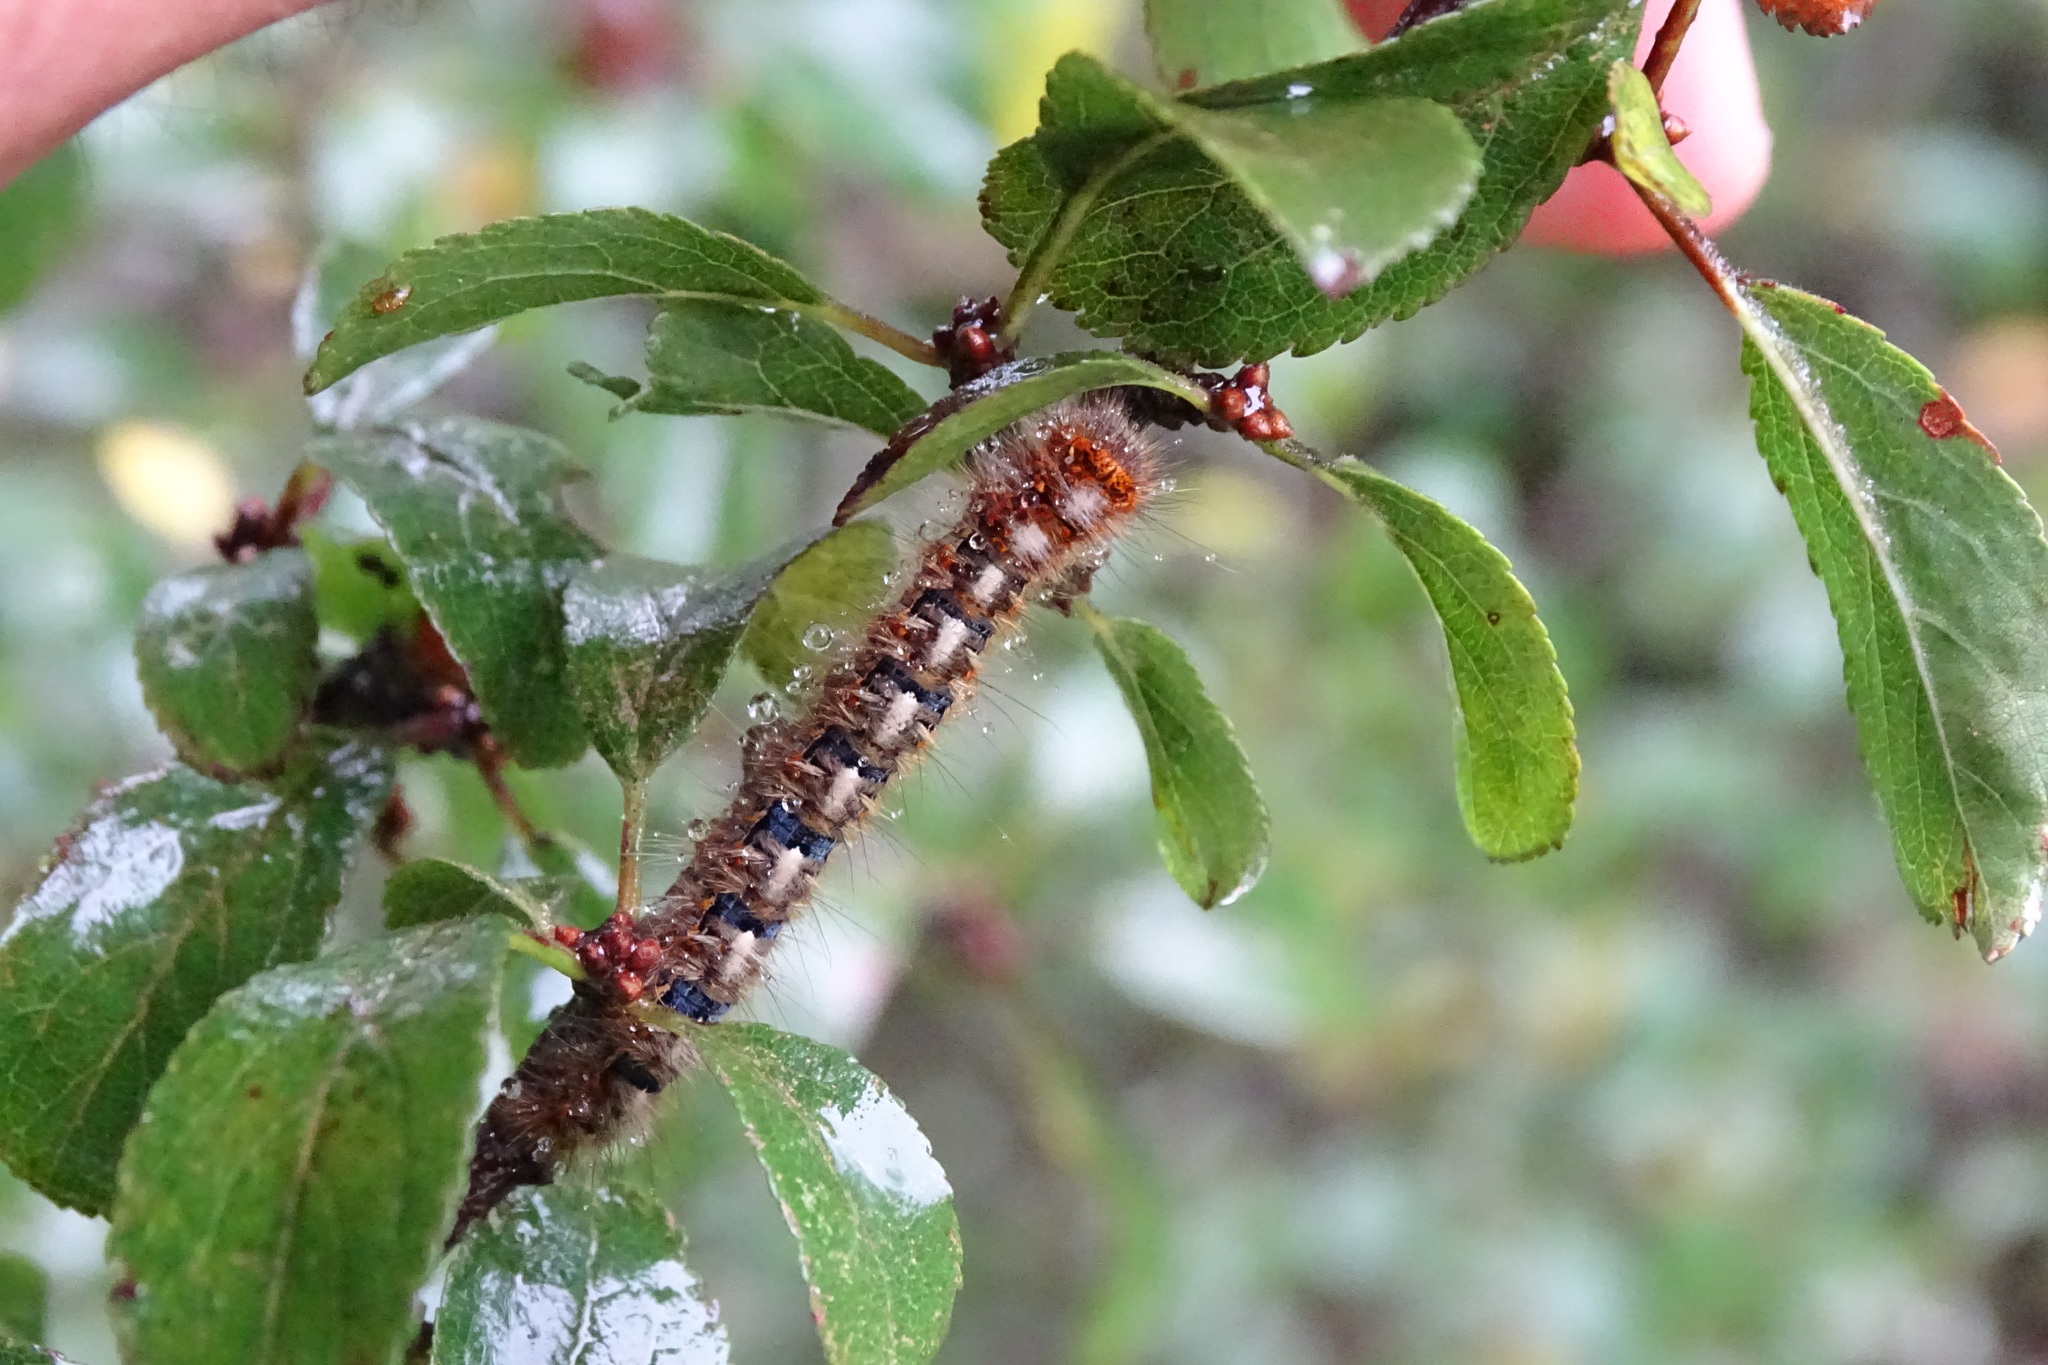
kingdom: Animalia
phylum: Arthropoda
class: Insecta
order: Lepidoptera
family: Lasiocampidae
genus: Lasiocampa
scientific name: Lasiocampa quercus
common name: Oak eggar
